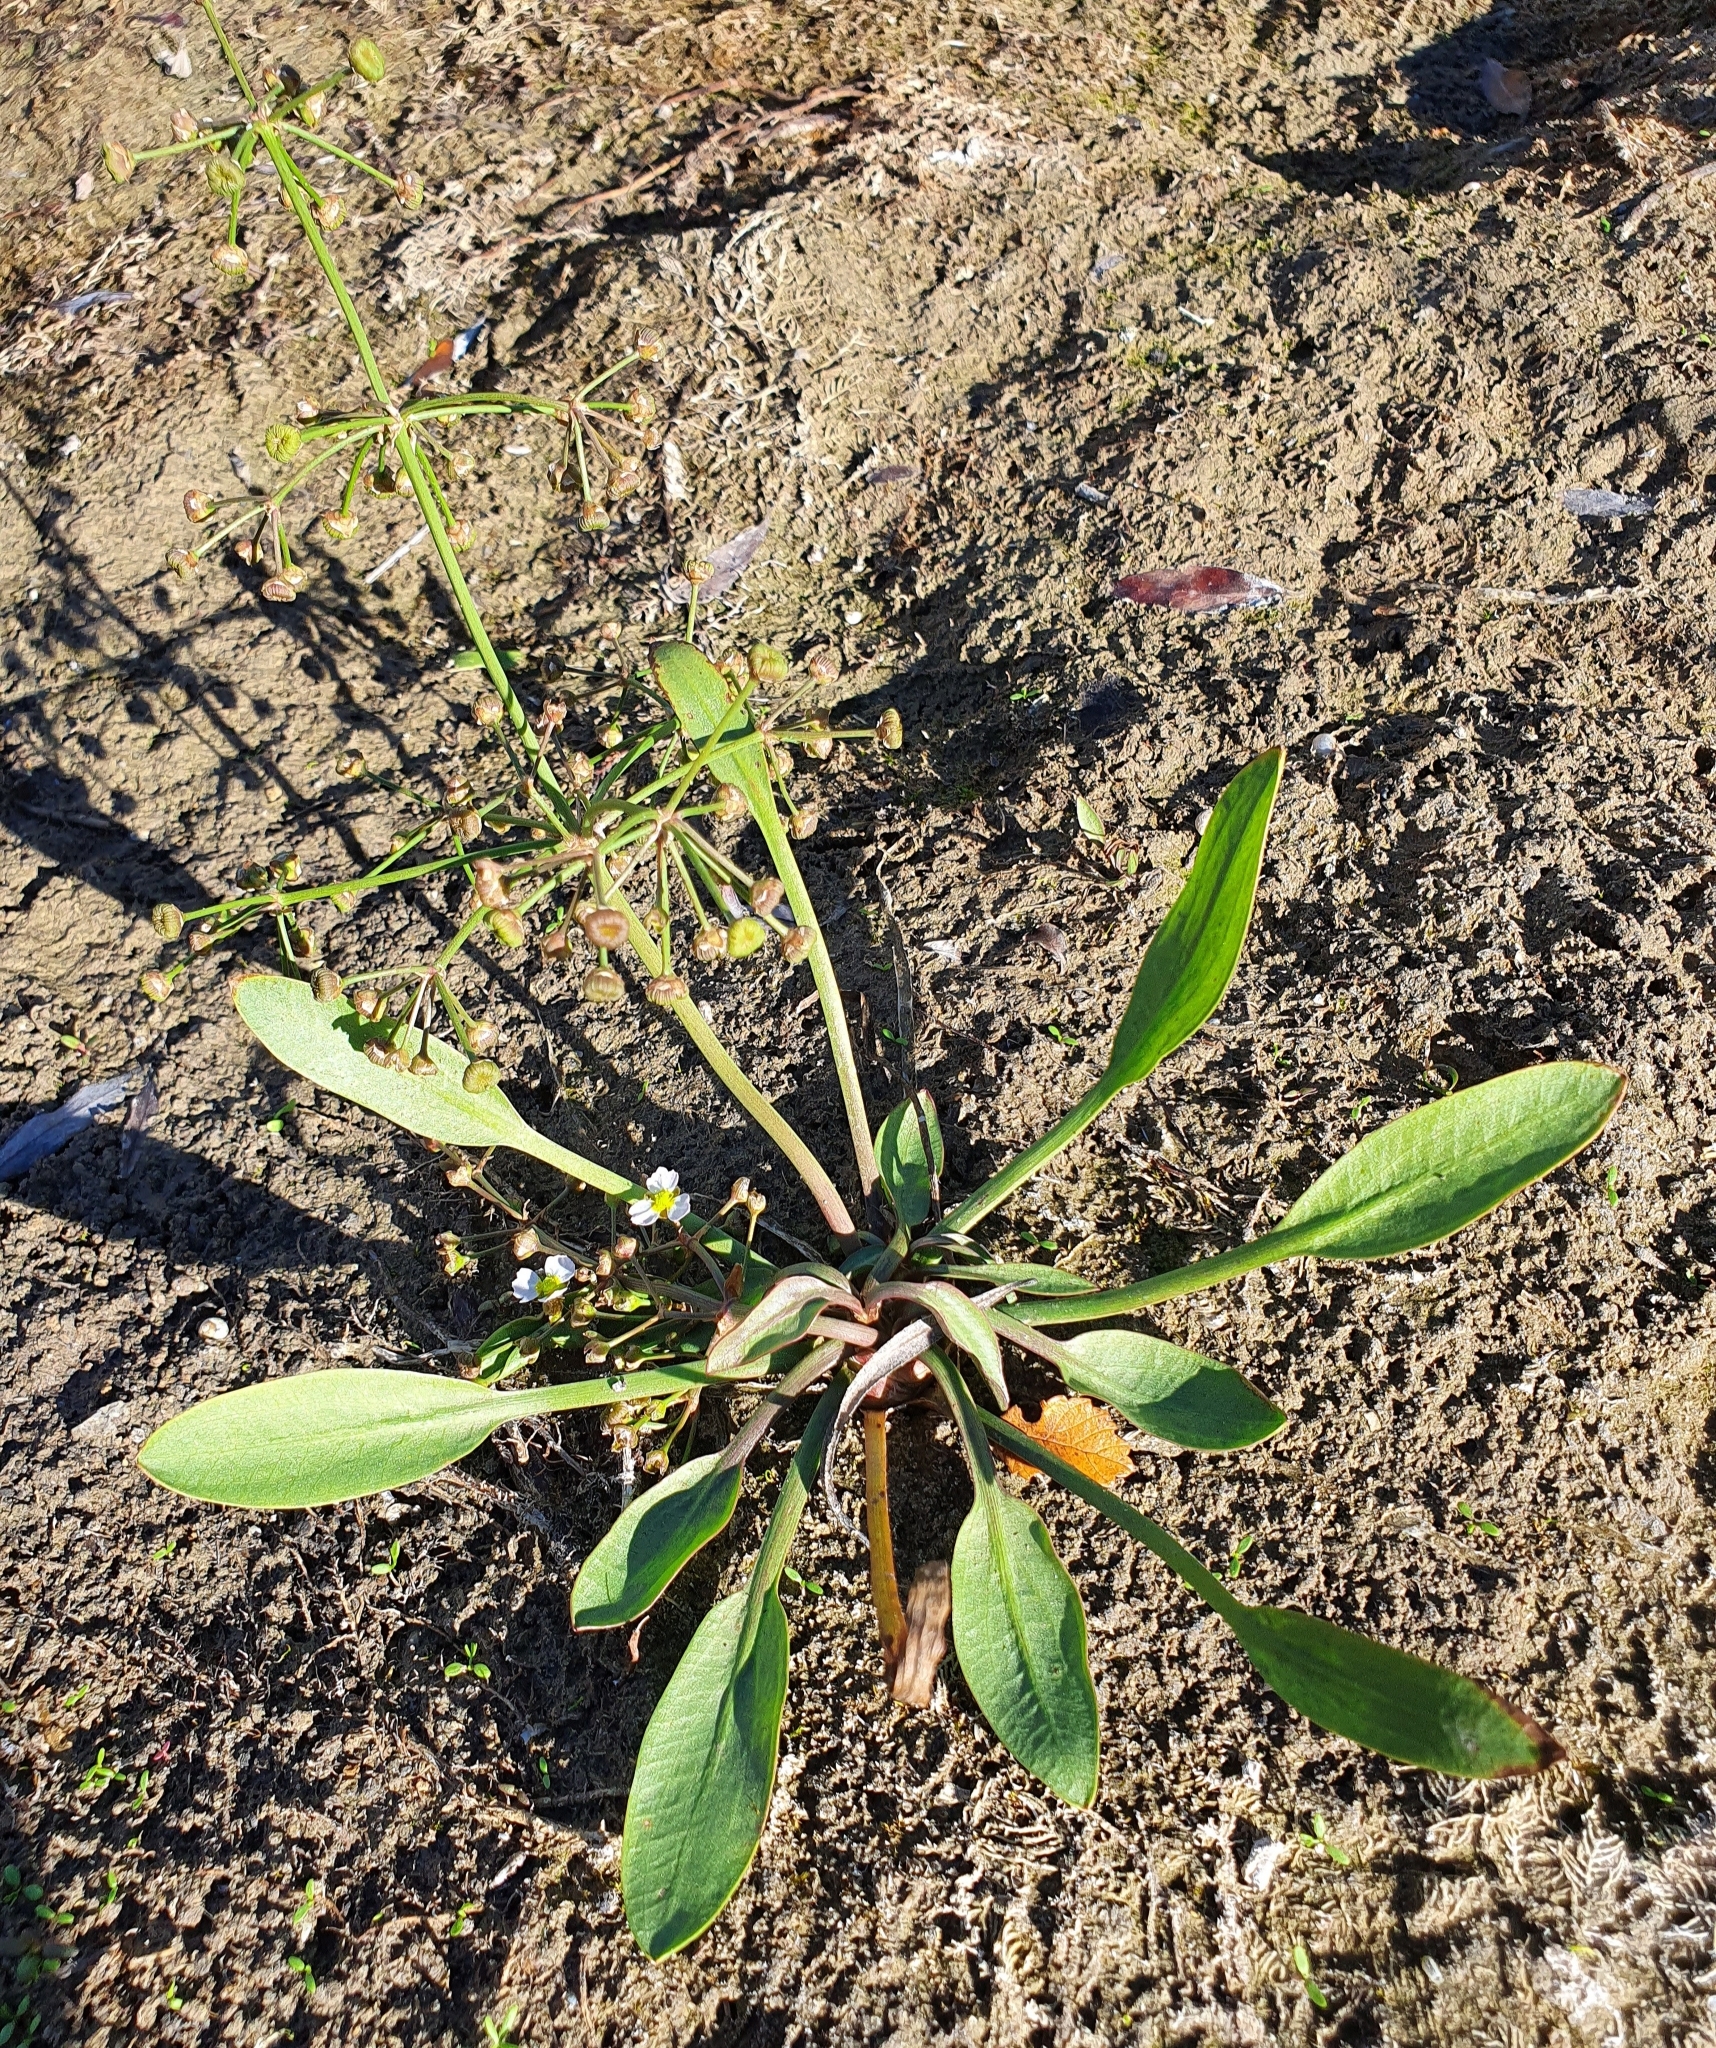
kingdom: Plantae
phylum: Tracheophyta
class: Liliopsida
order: Alismatales
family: Alismataceae
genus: Alisma
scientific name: Alisma lanceolatum
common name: Narrow-leaved water-plantain
